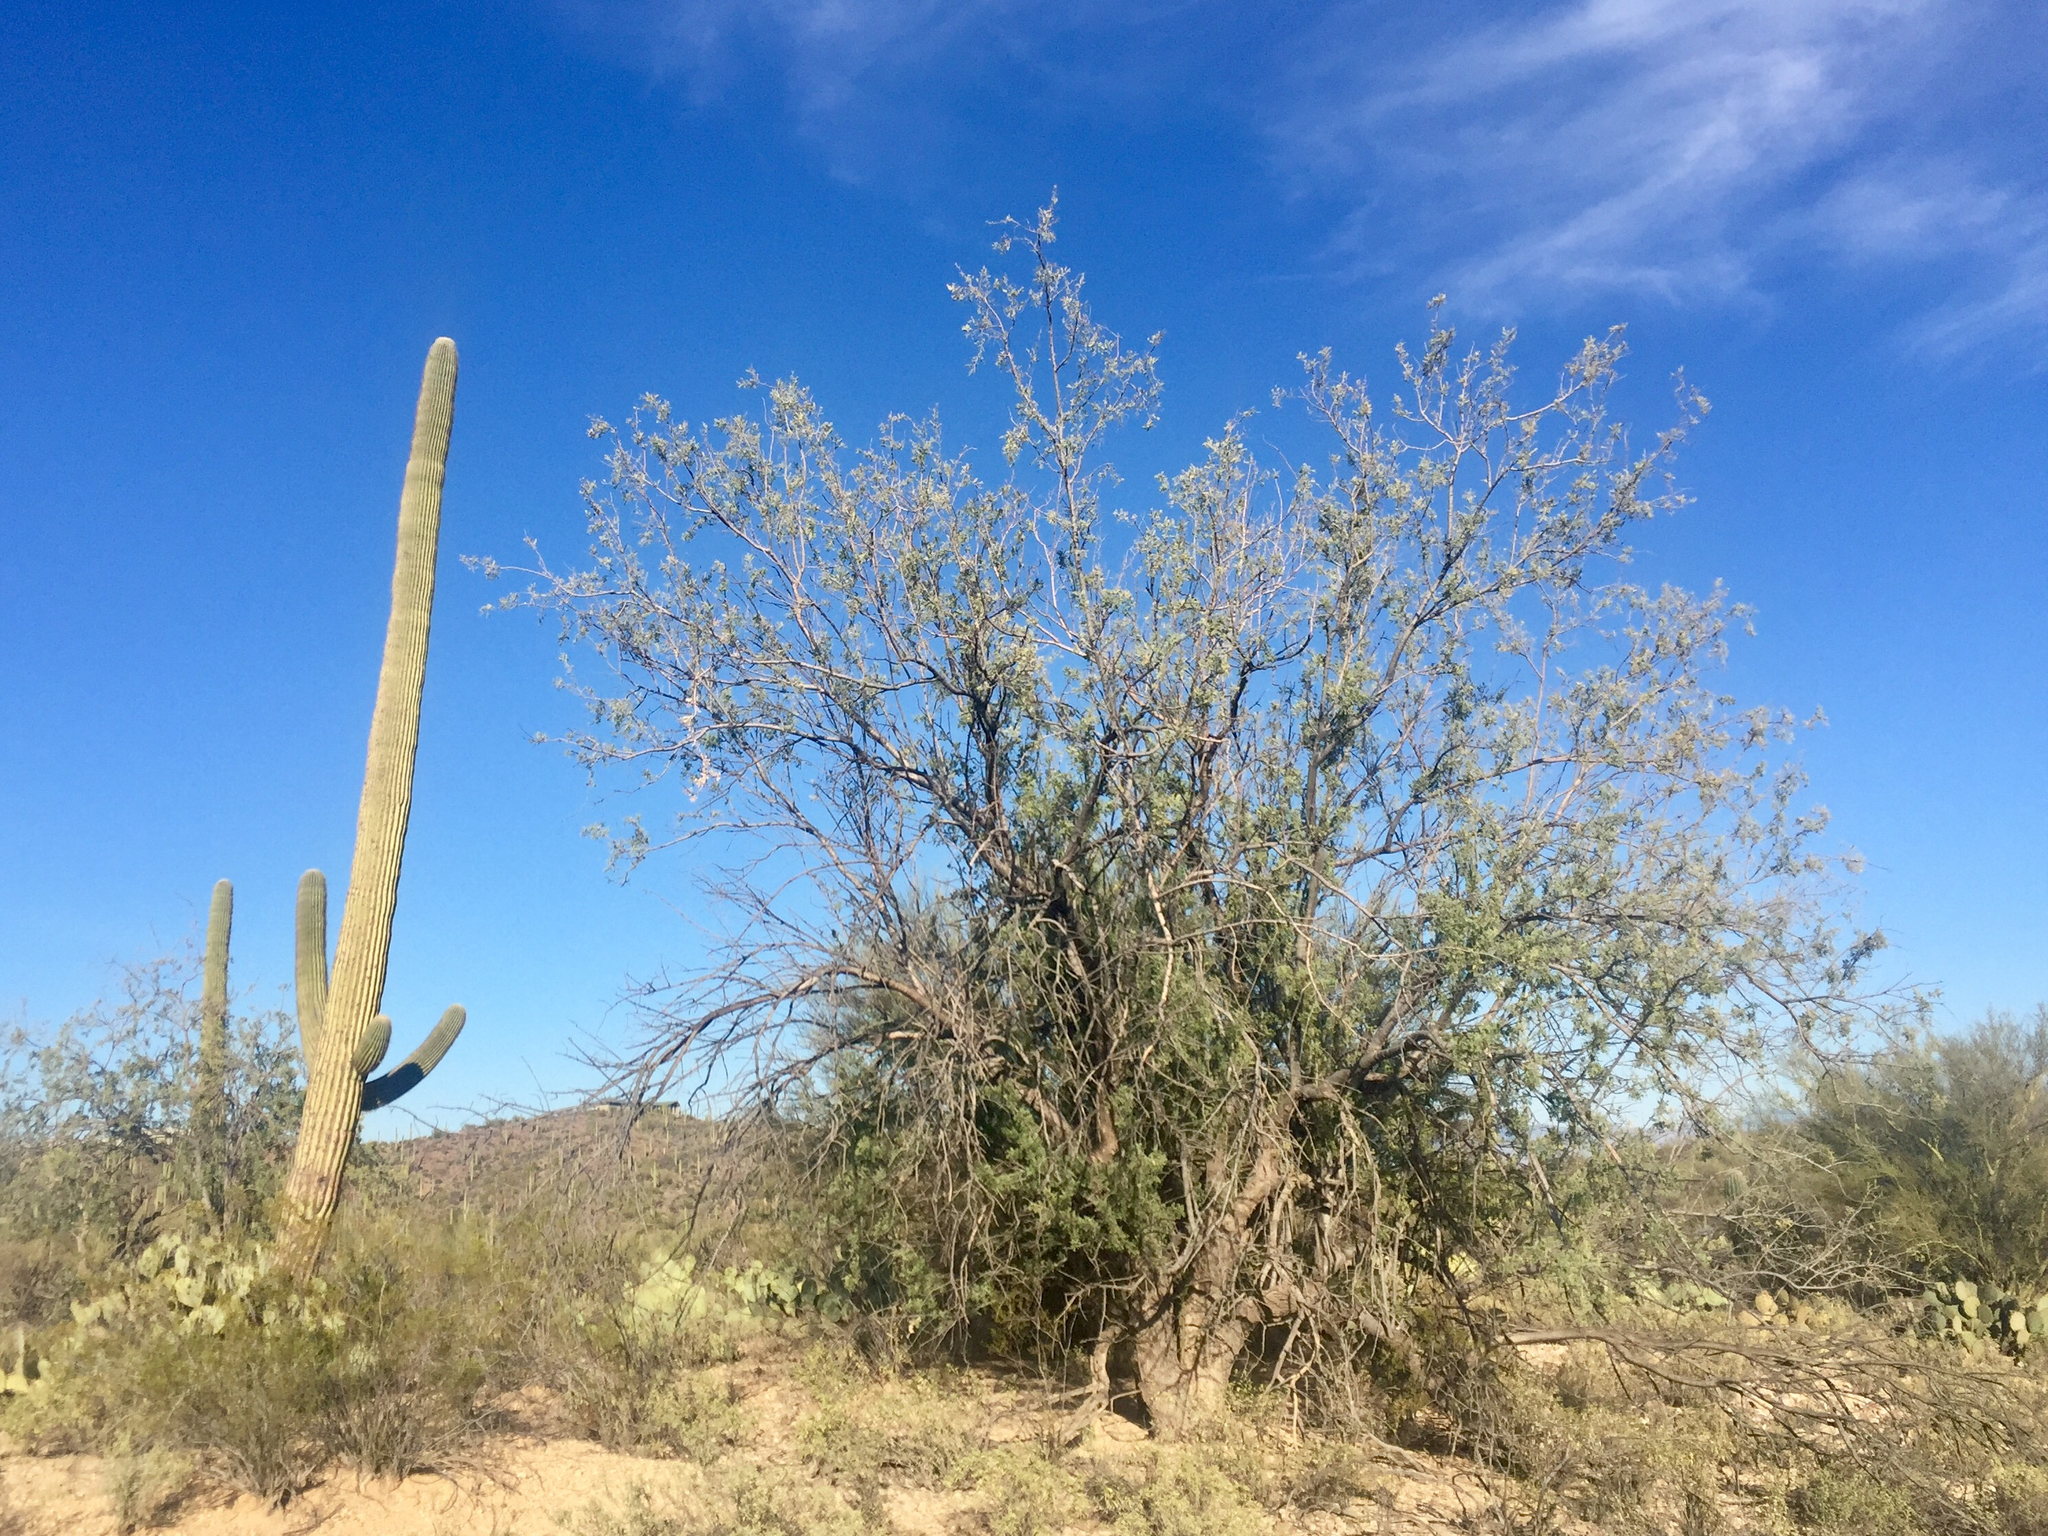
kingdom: Plantae
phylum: Tracheophyta
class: Magnoliopsida
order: Fabales
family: Fabaceae
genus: Olneya
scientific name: Olneya tesota
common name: Desert ironwood
